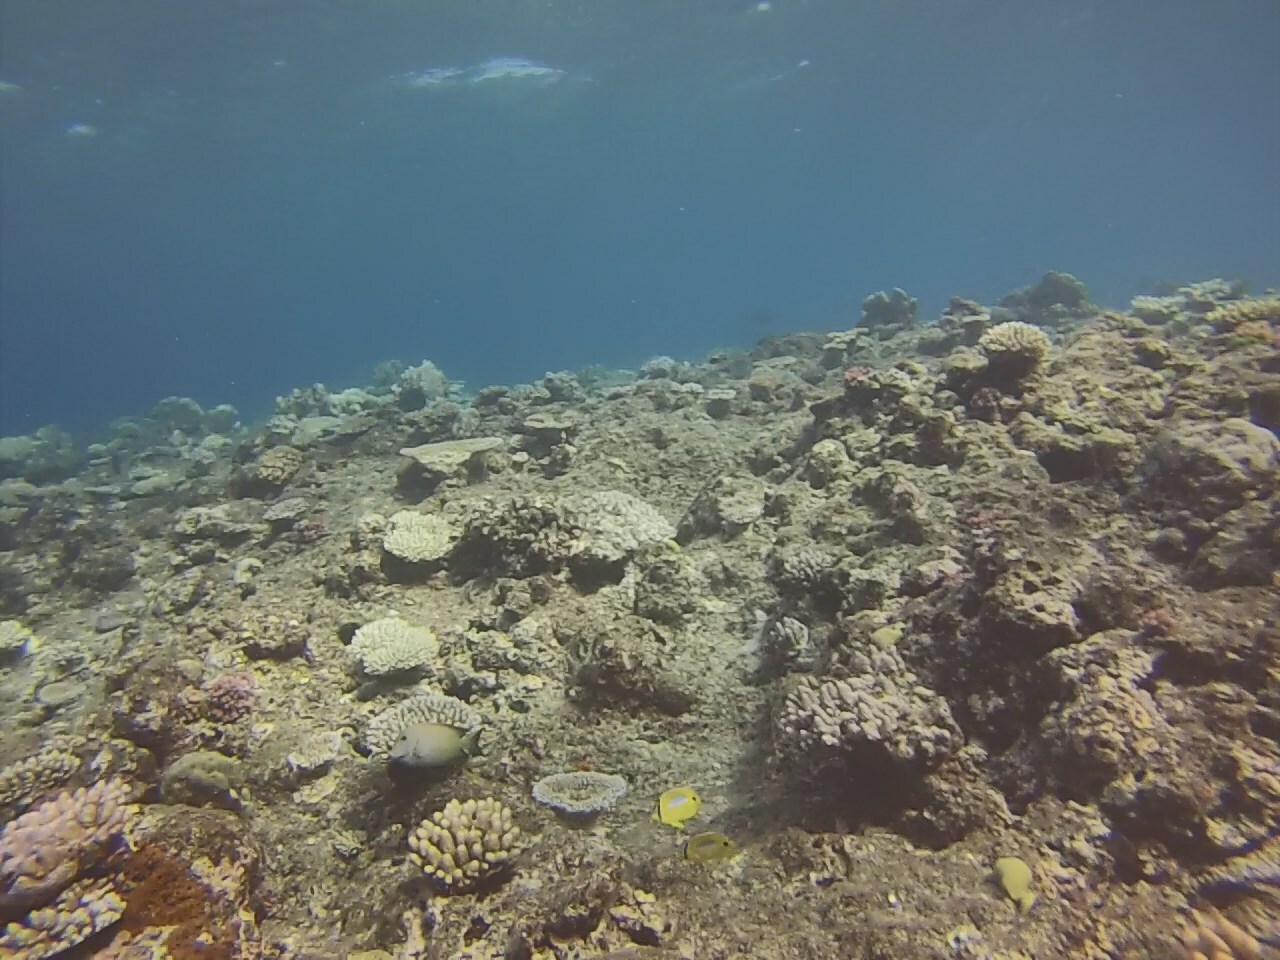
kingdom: Animalia
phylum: Chordata
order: Perciformes
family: Chaetodontidae
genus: Chaetodon
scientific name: Chaetodon plebeius
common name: Bluespot butterflyfish
